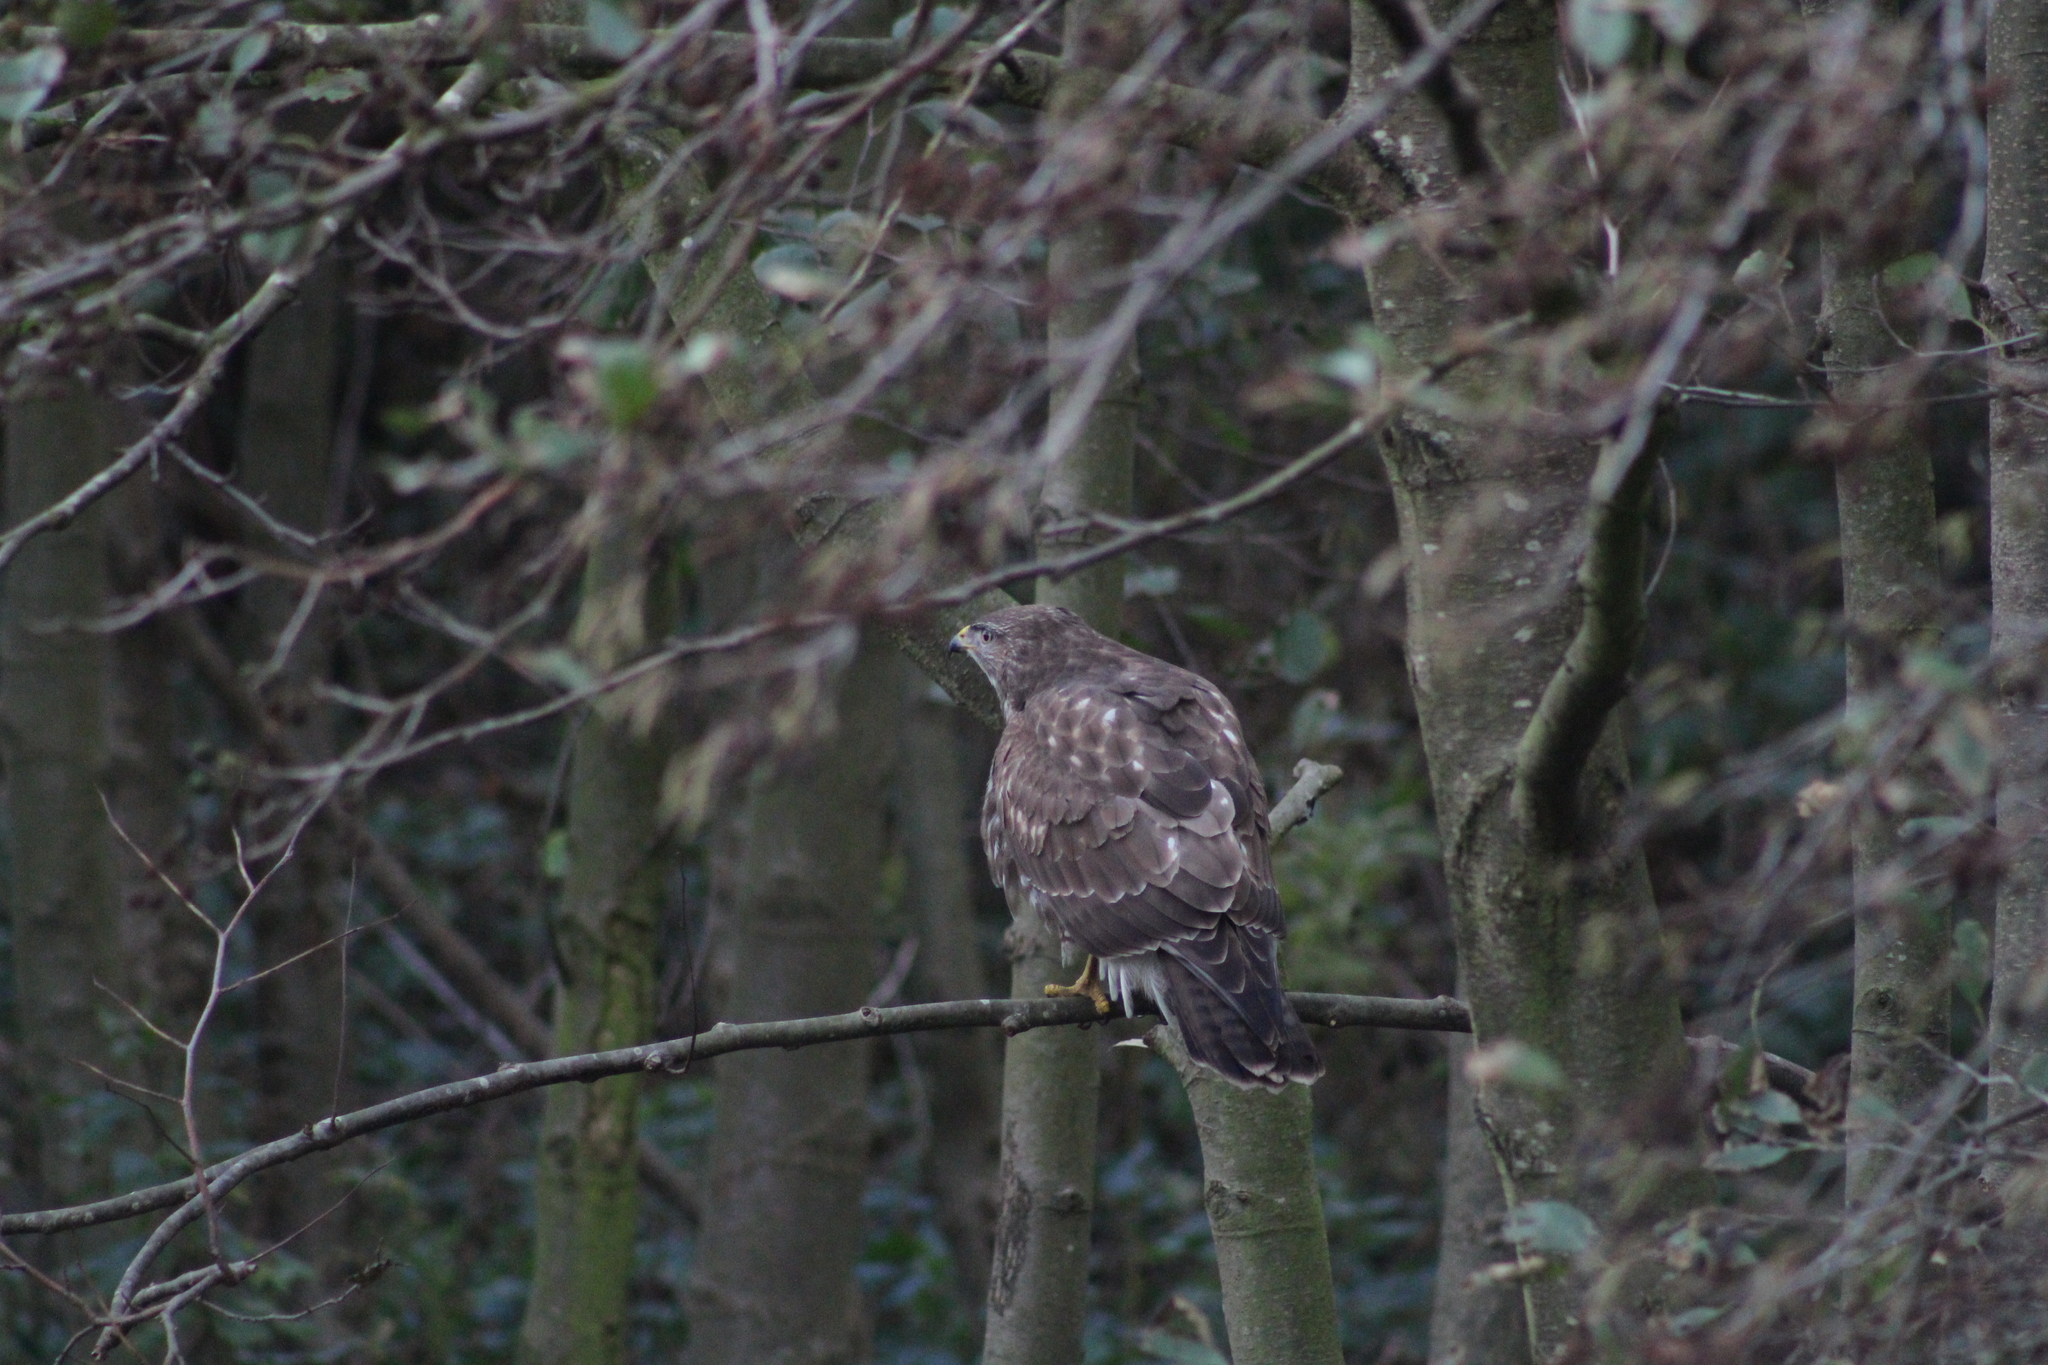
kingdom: Animalia
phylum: Chordata
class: Aves
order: Accipitriformes
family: Accipitridae
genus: Buteo
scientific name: Buteo buteo
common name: Common buzzard
